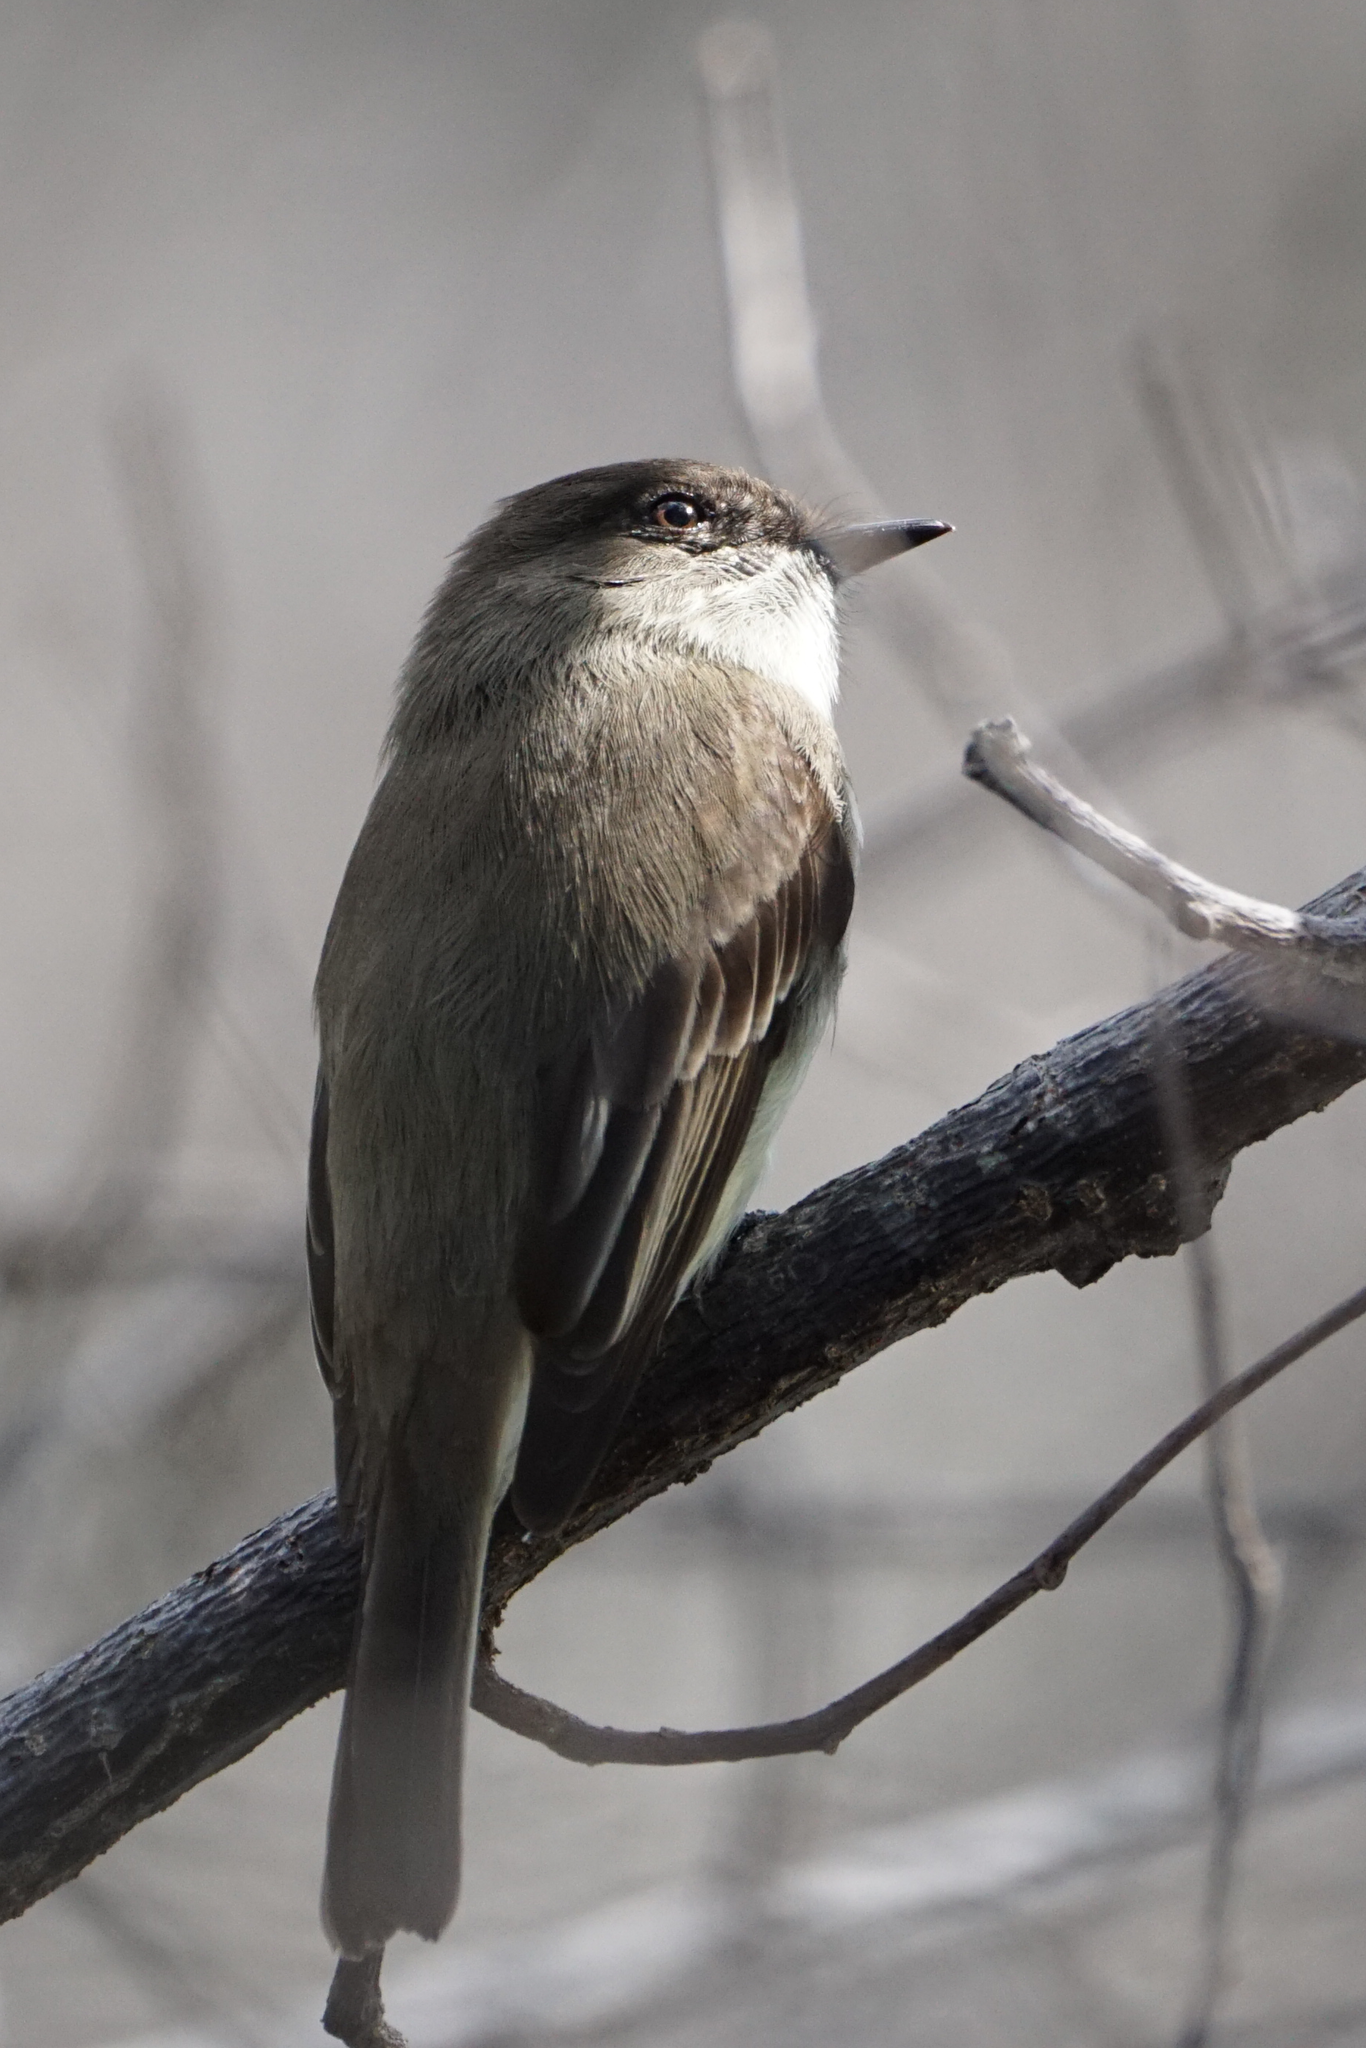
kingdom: Animalia
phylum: Chordata
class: Aves
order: Passeriformes
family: Tyrannidae
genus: Sayornis
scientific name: Sayornis phoebe
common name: Eastern phoebe
